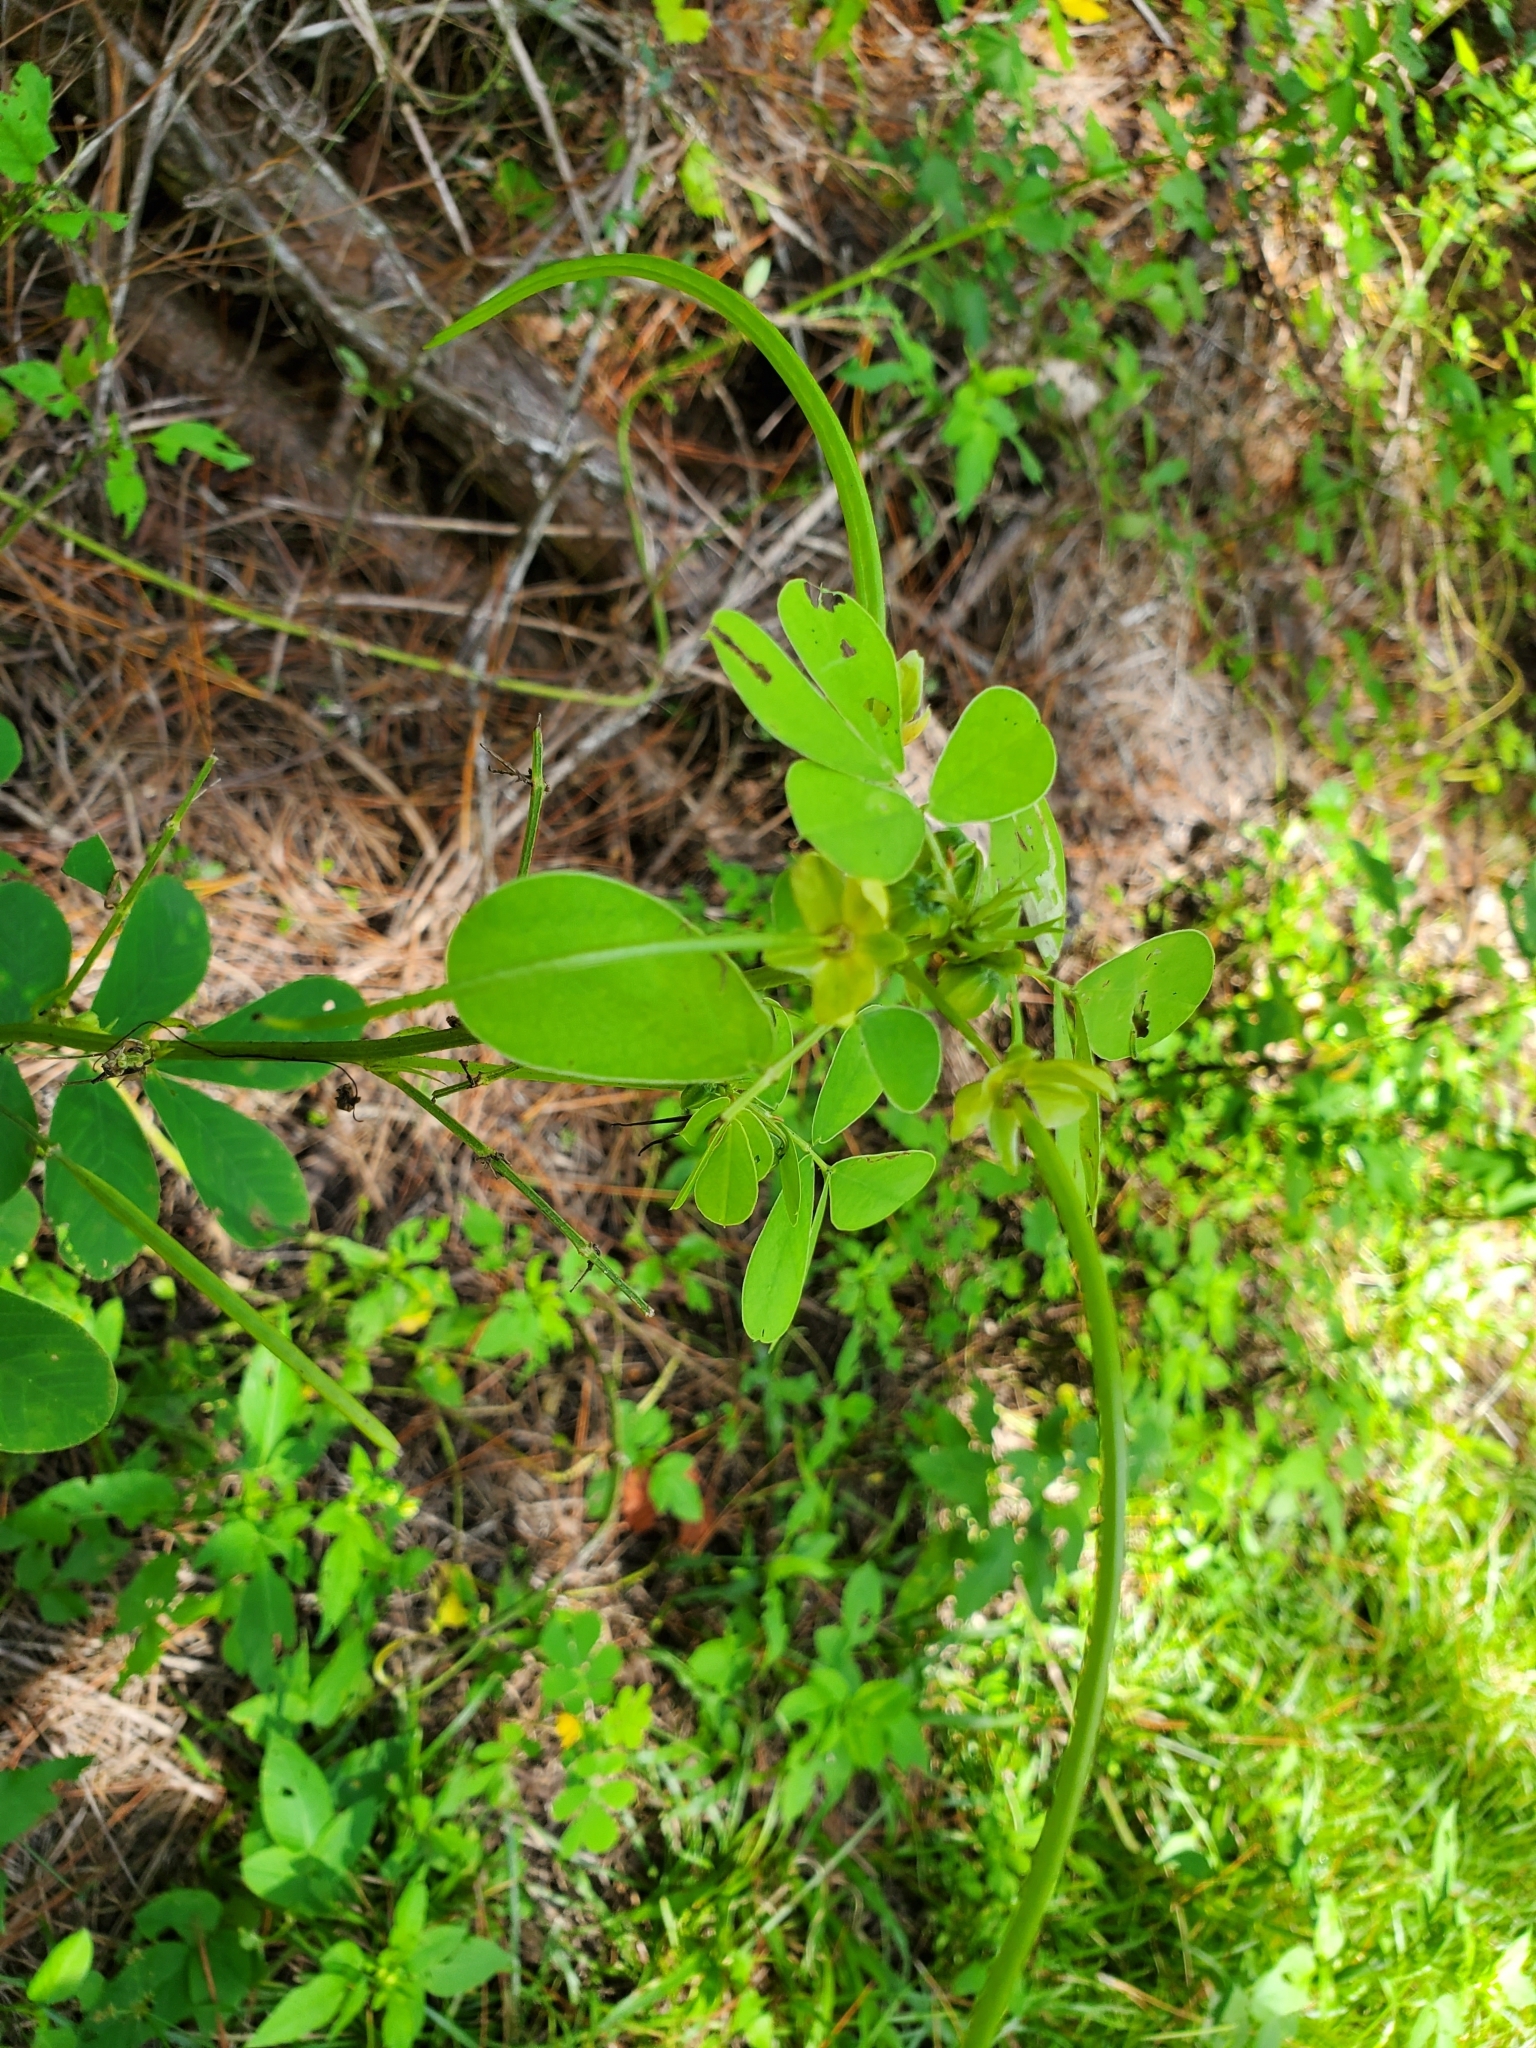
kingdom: Plantae
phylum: Tracheophyta
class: Magnoliopsida
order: Fabales
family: Fabaceae
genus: Senna
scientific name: Senna obtusifolia
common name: Java-bean
